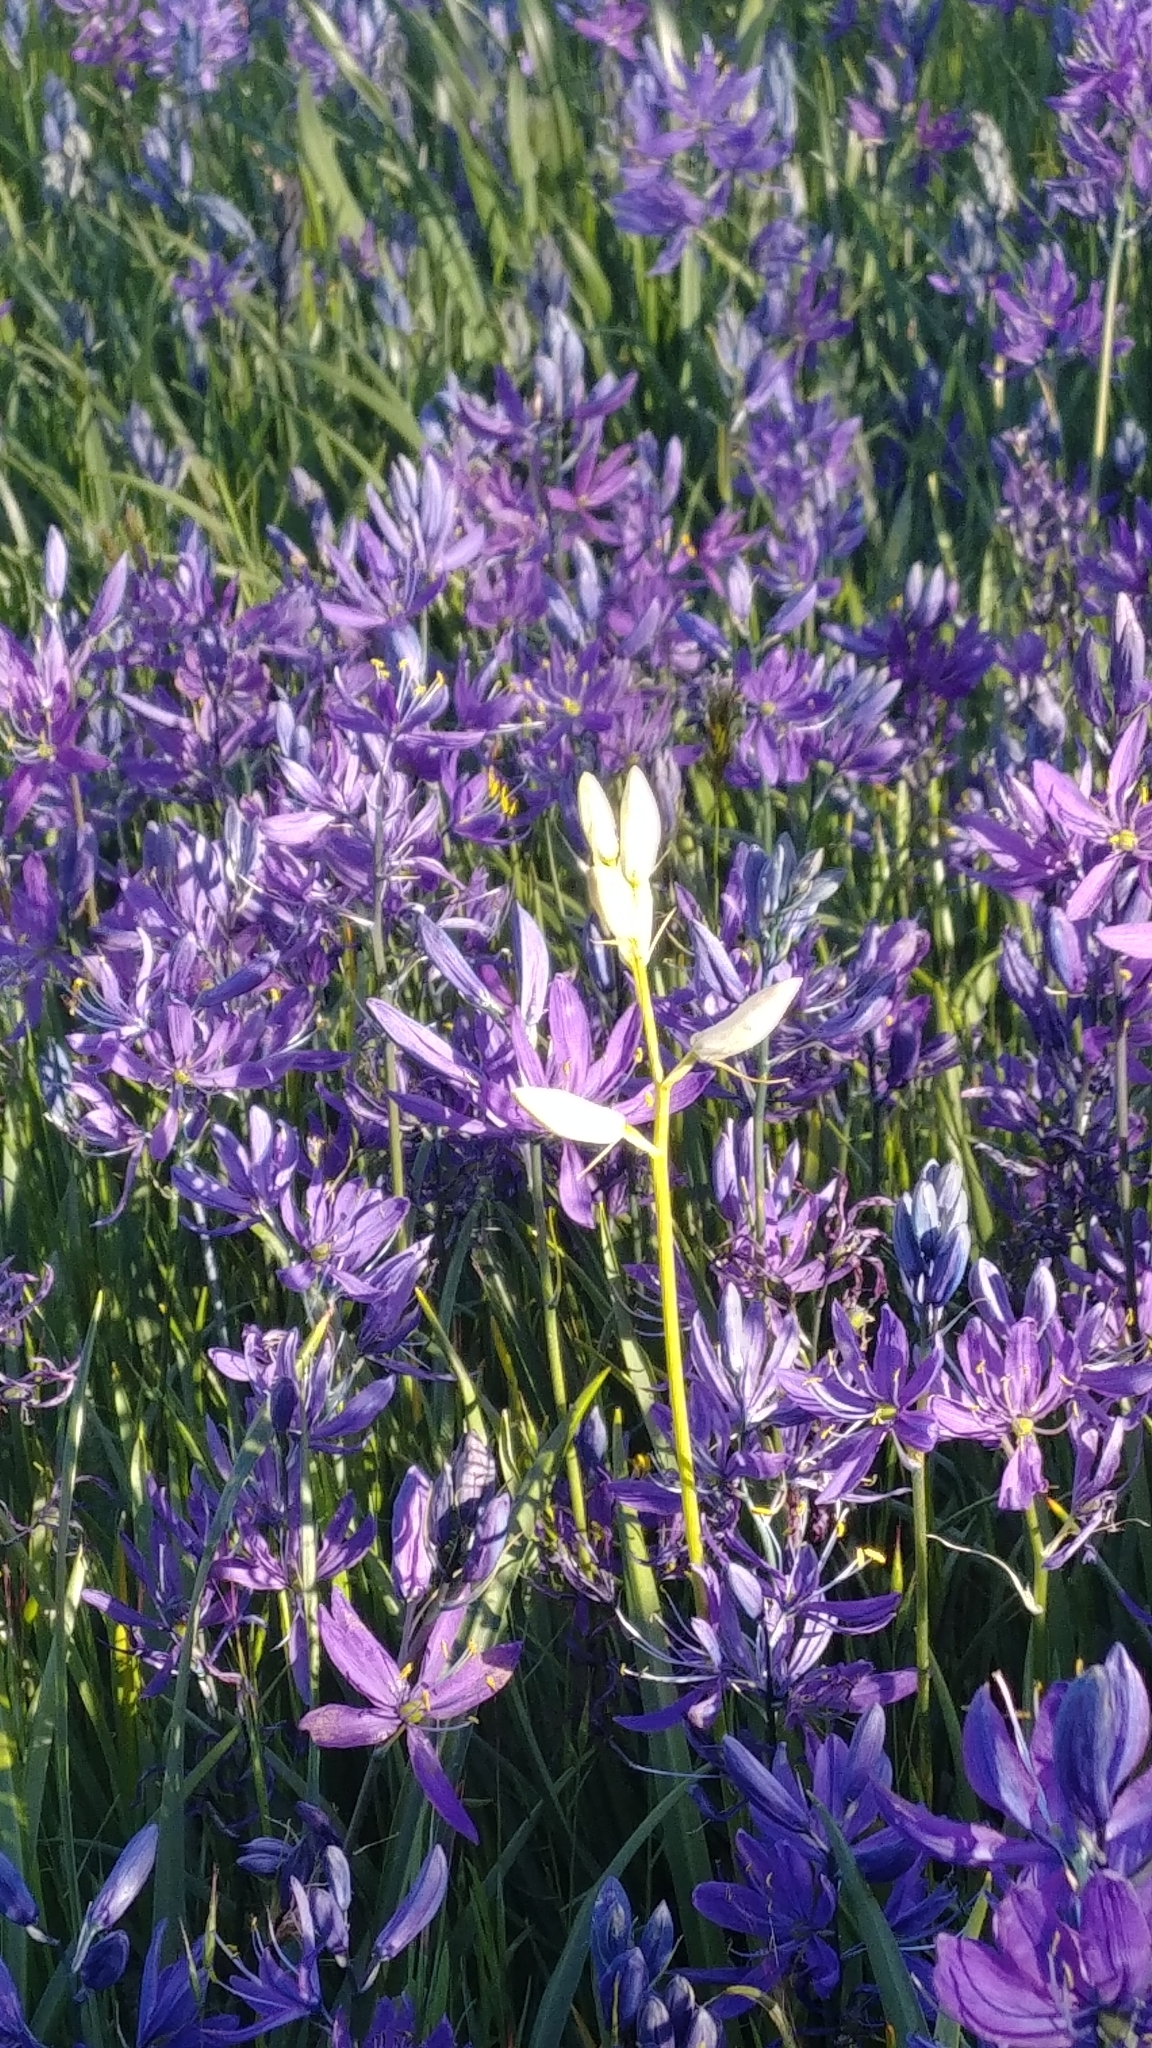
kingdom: Plantae
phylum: Tracheophyta
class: Liliopsida
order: Asparagales
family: Asparagaceae
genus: Camassia
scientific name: Camassia quamash
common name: Common camas
